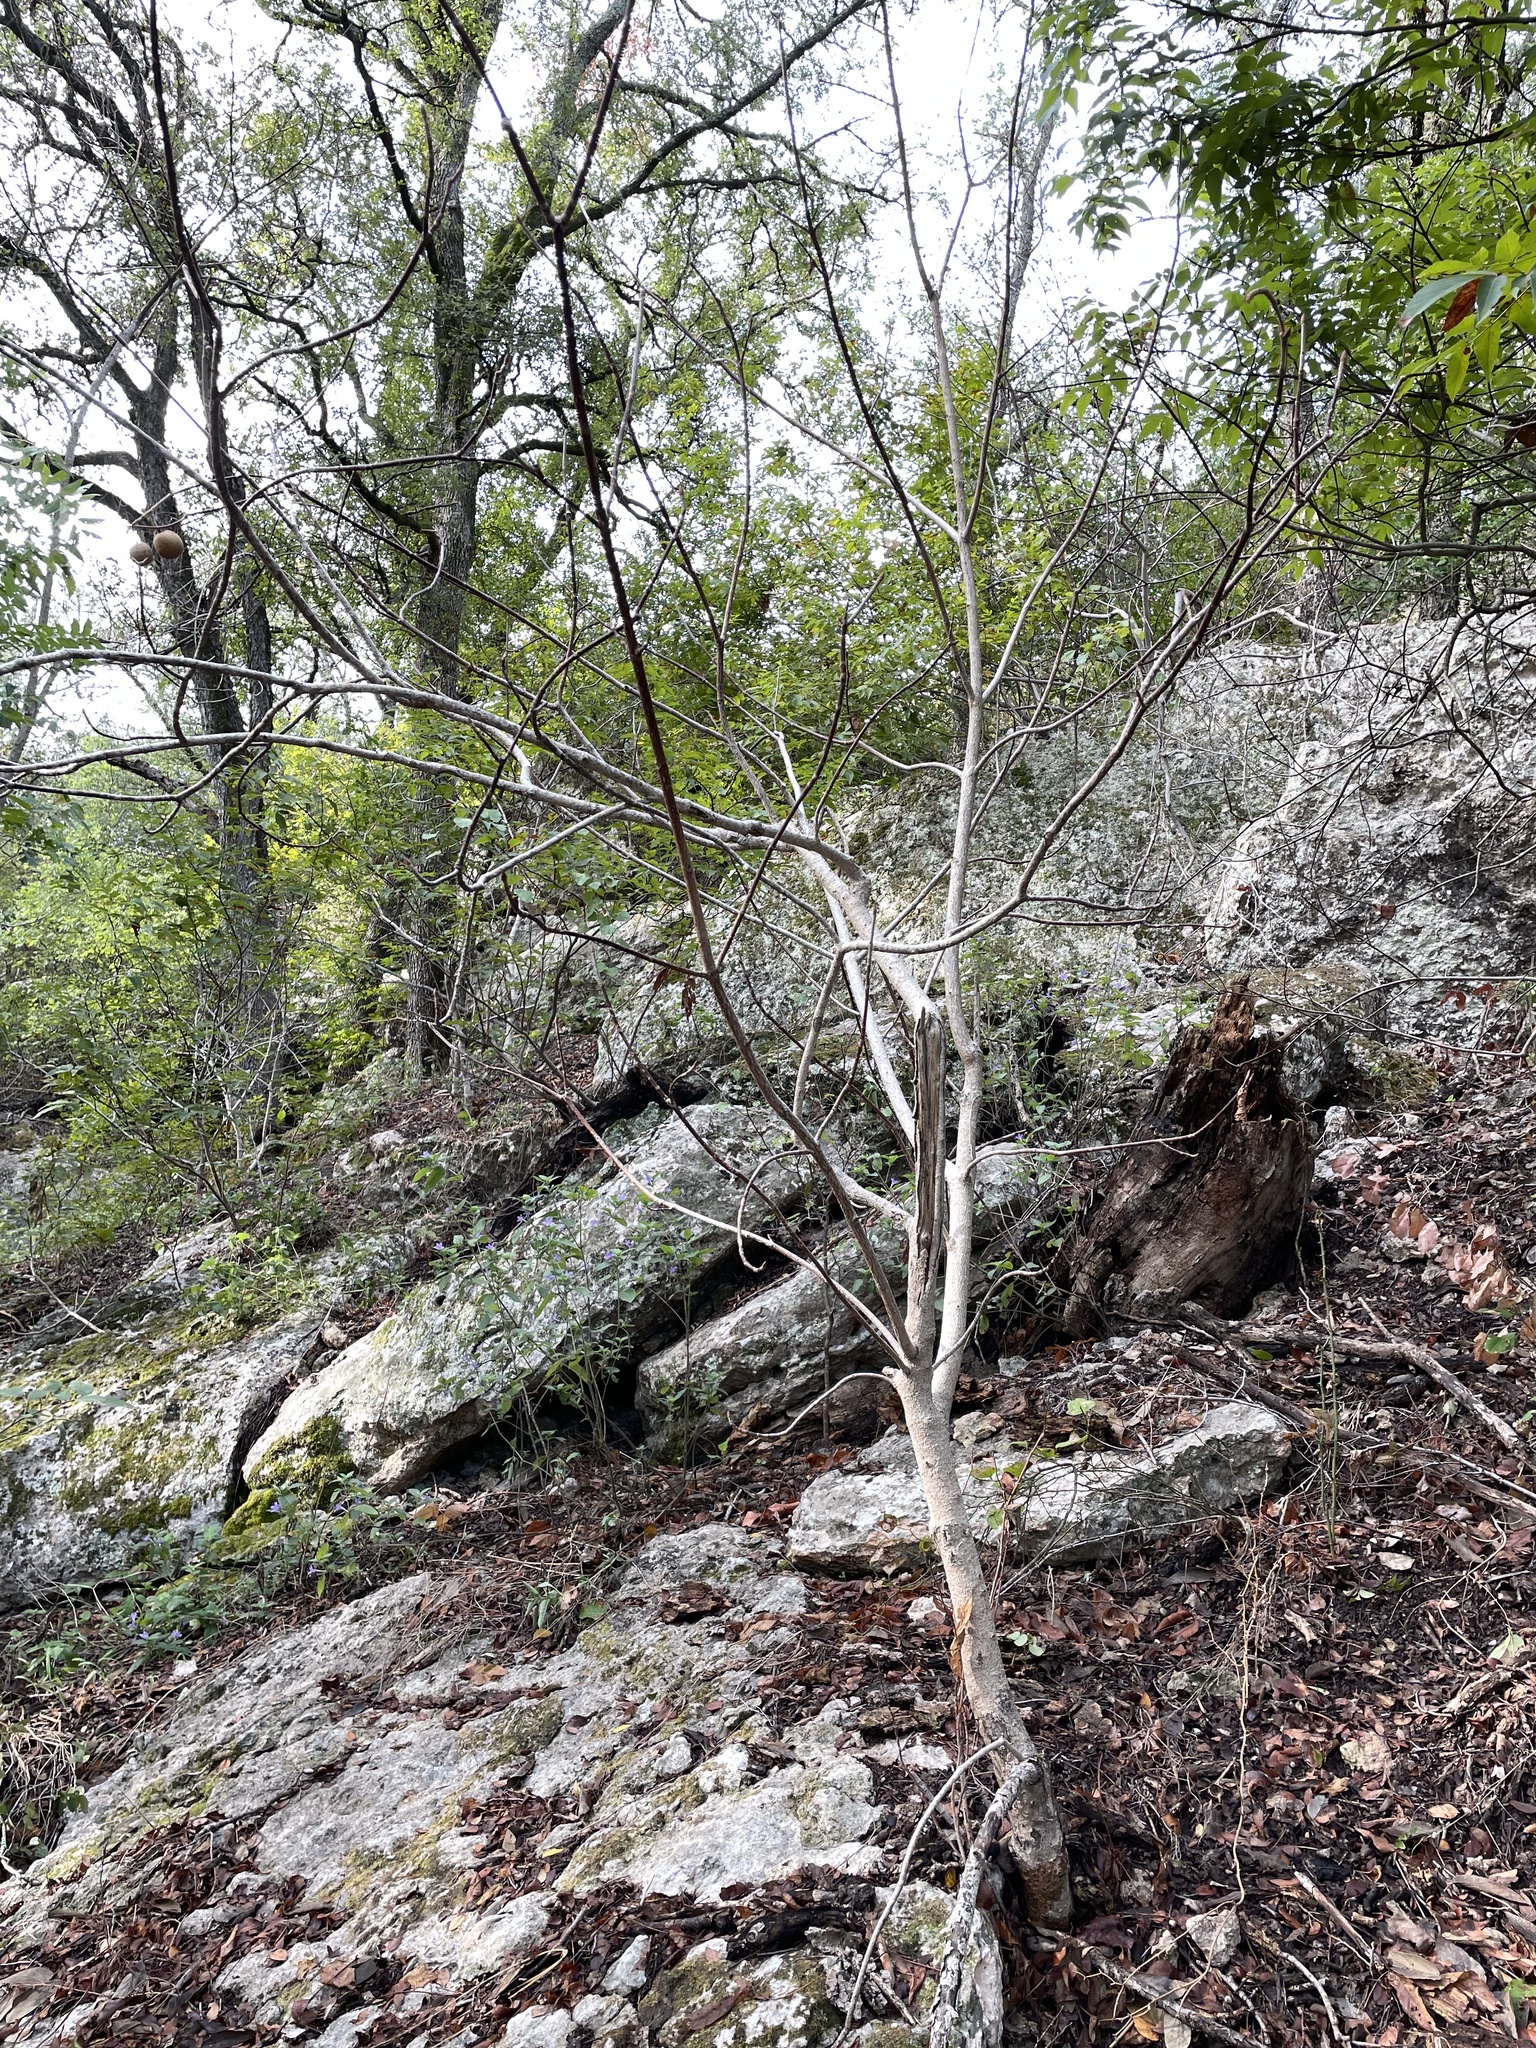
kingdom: Plantae
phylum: Tracheophyta
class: Magnoliopsida
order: Sapindales
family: Sapindaceae
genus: Aesculus
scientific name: Aesculus glabra
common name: Ohio buckeye
